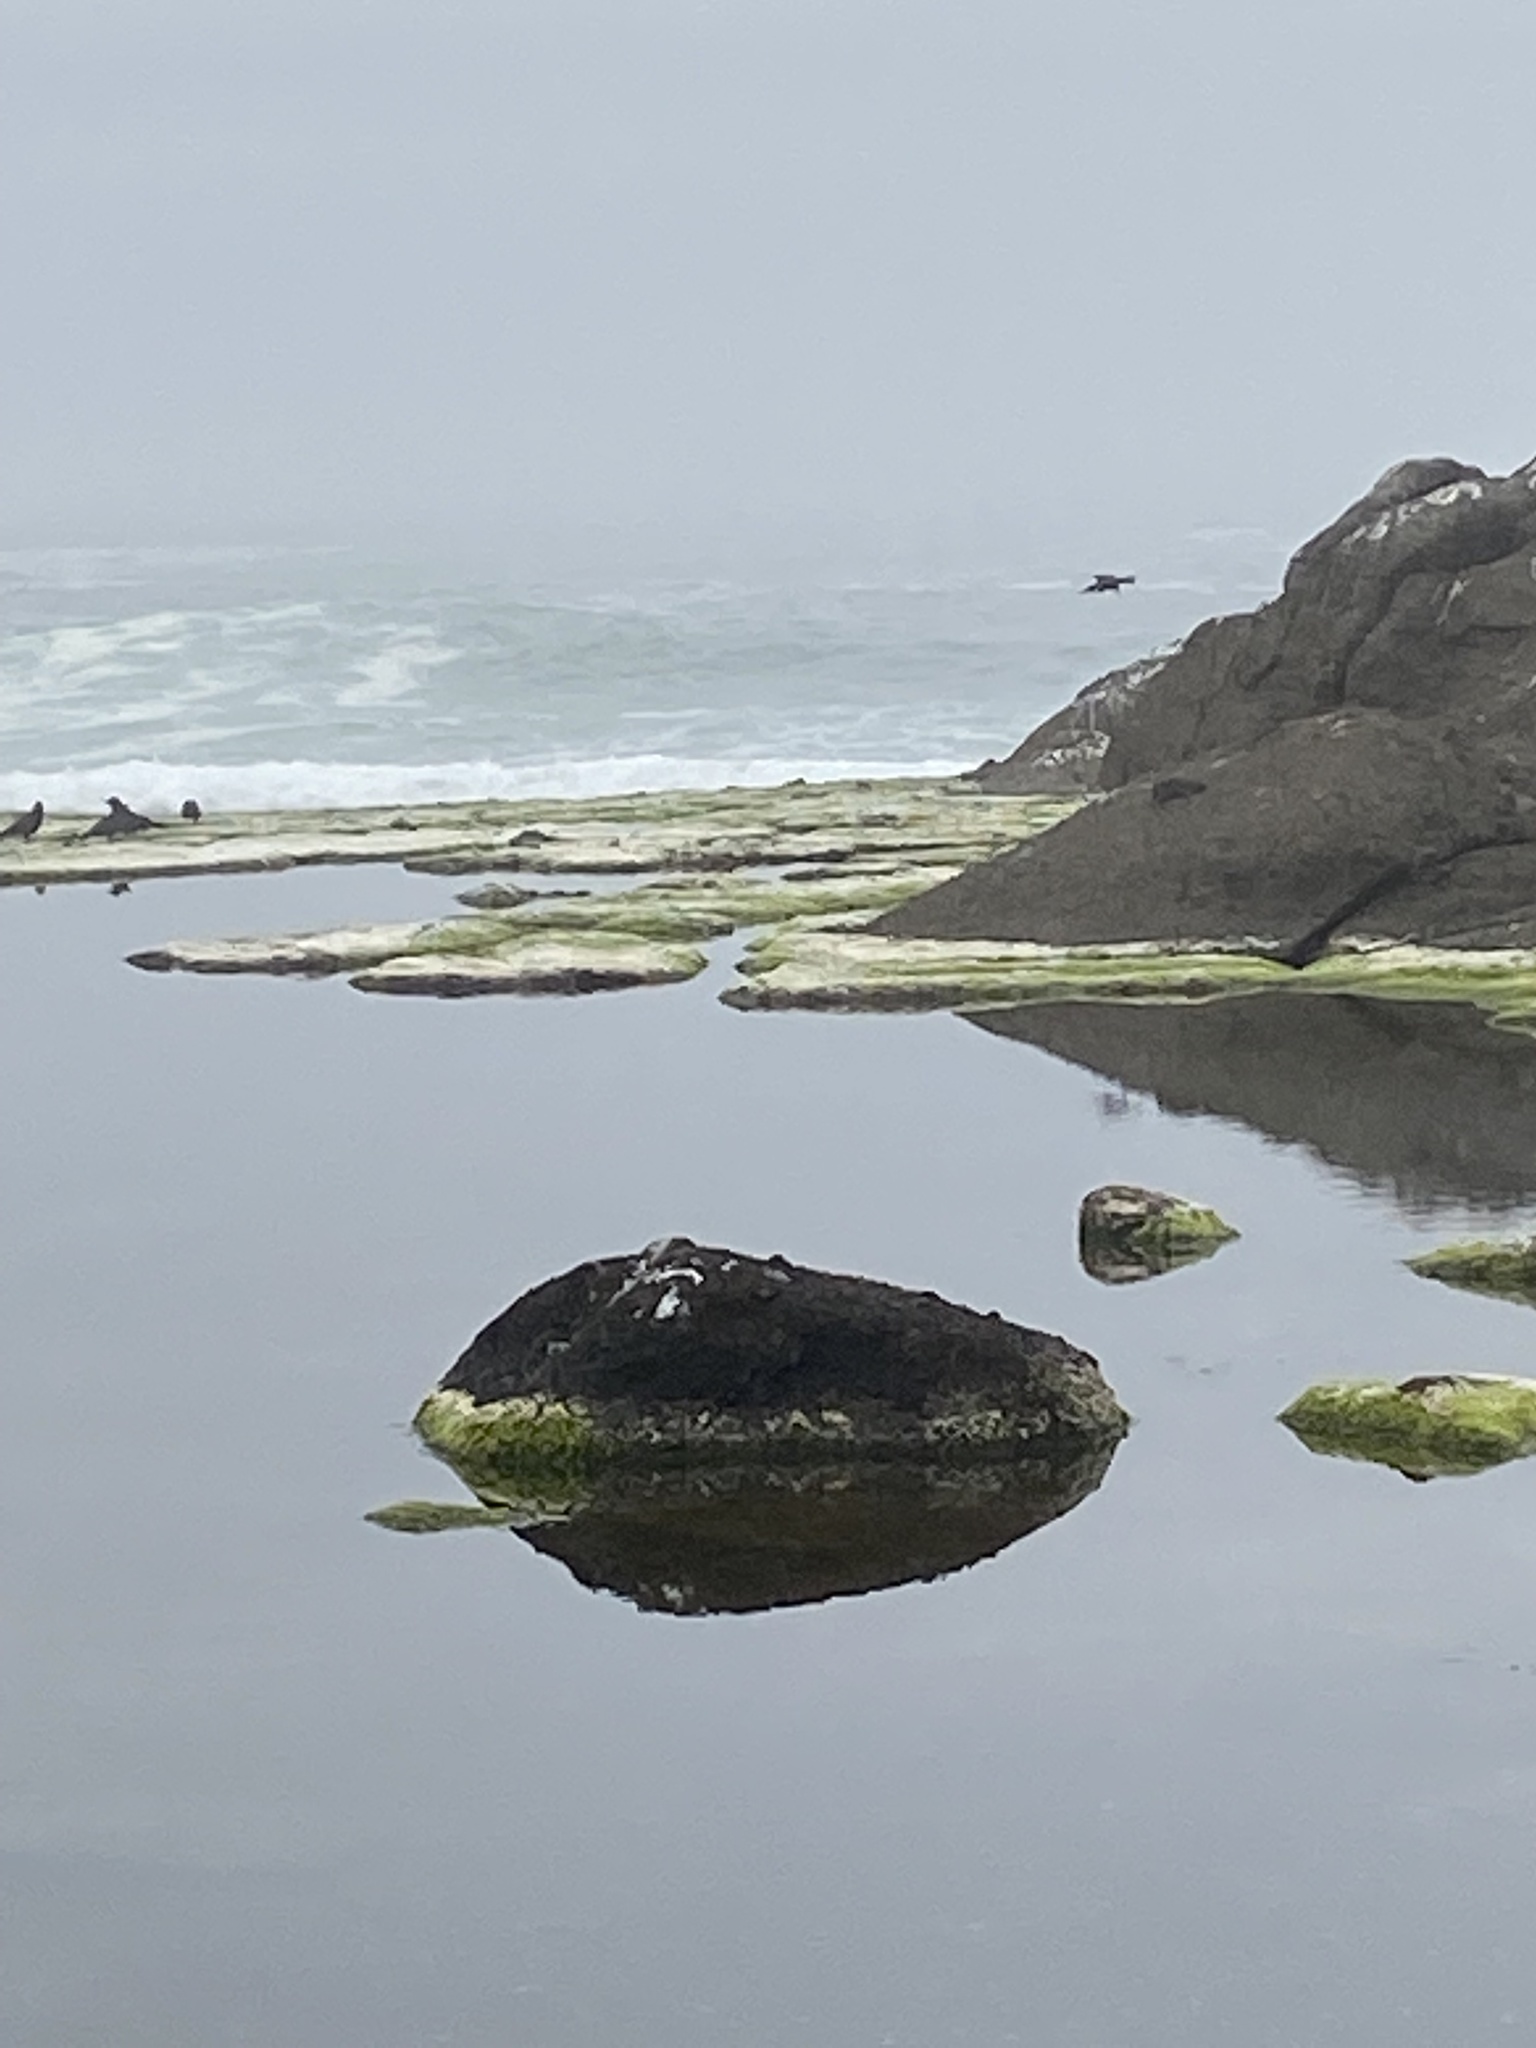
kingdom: Animalia
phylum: Chordata
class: Aves
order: Coraciiformes
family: Alcedinidae
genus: Megaceryle
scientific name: Megaceryle alcyon
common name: Belted kingfisher
